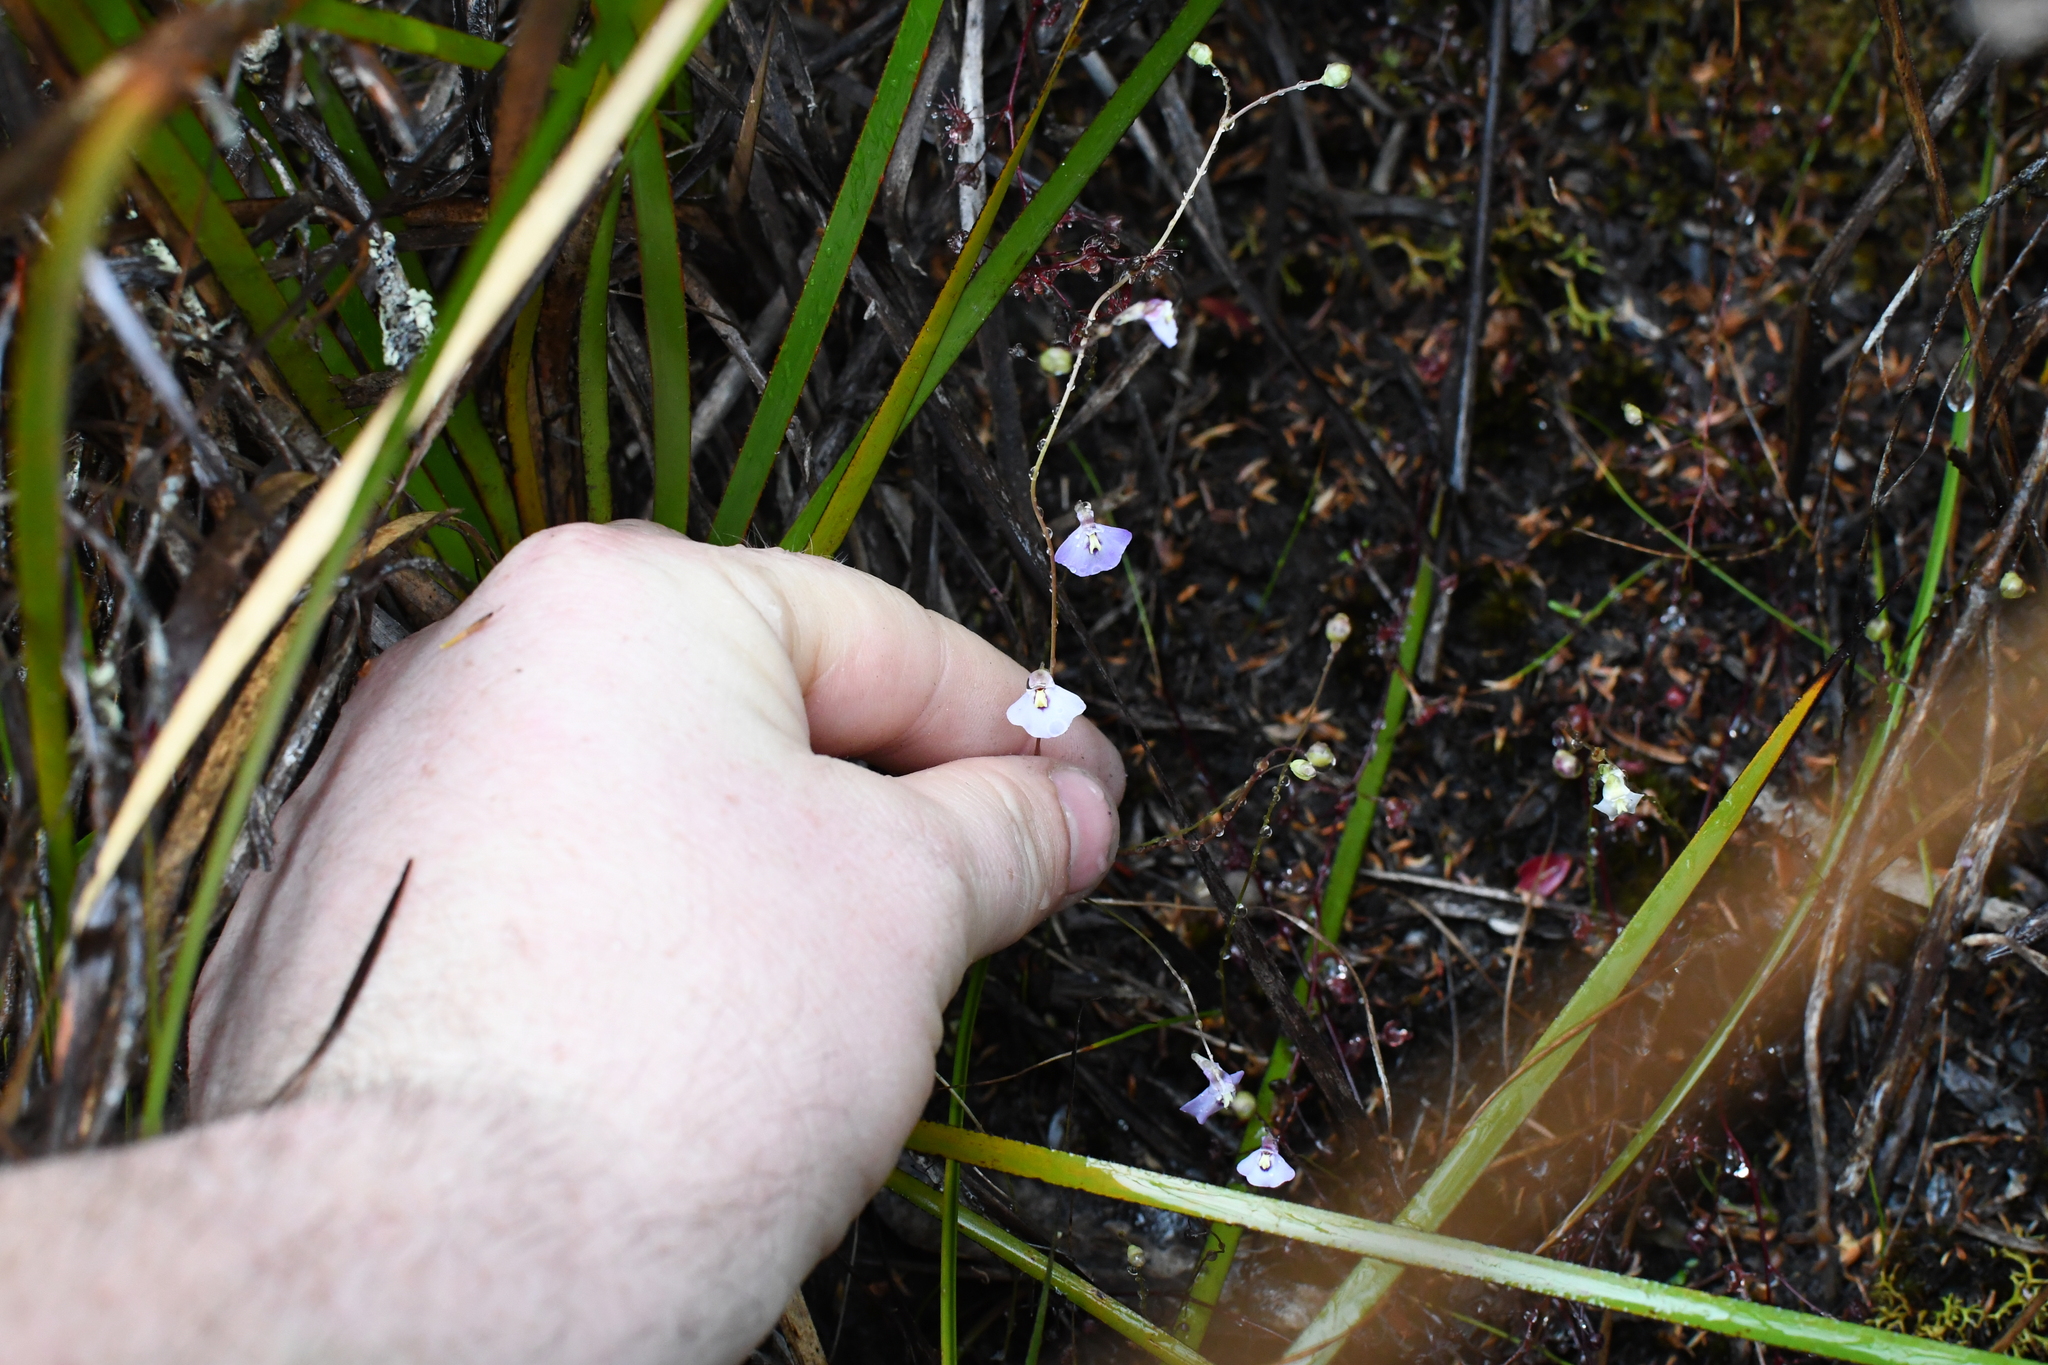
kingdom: Plantae
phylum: Tracheophyta
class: Magnoliopsida
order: Lamiales
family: Lentibulariaceae
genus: Utricularia
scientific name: Utricularia grampiana
